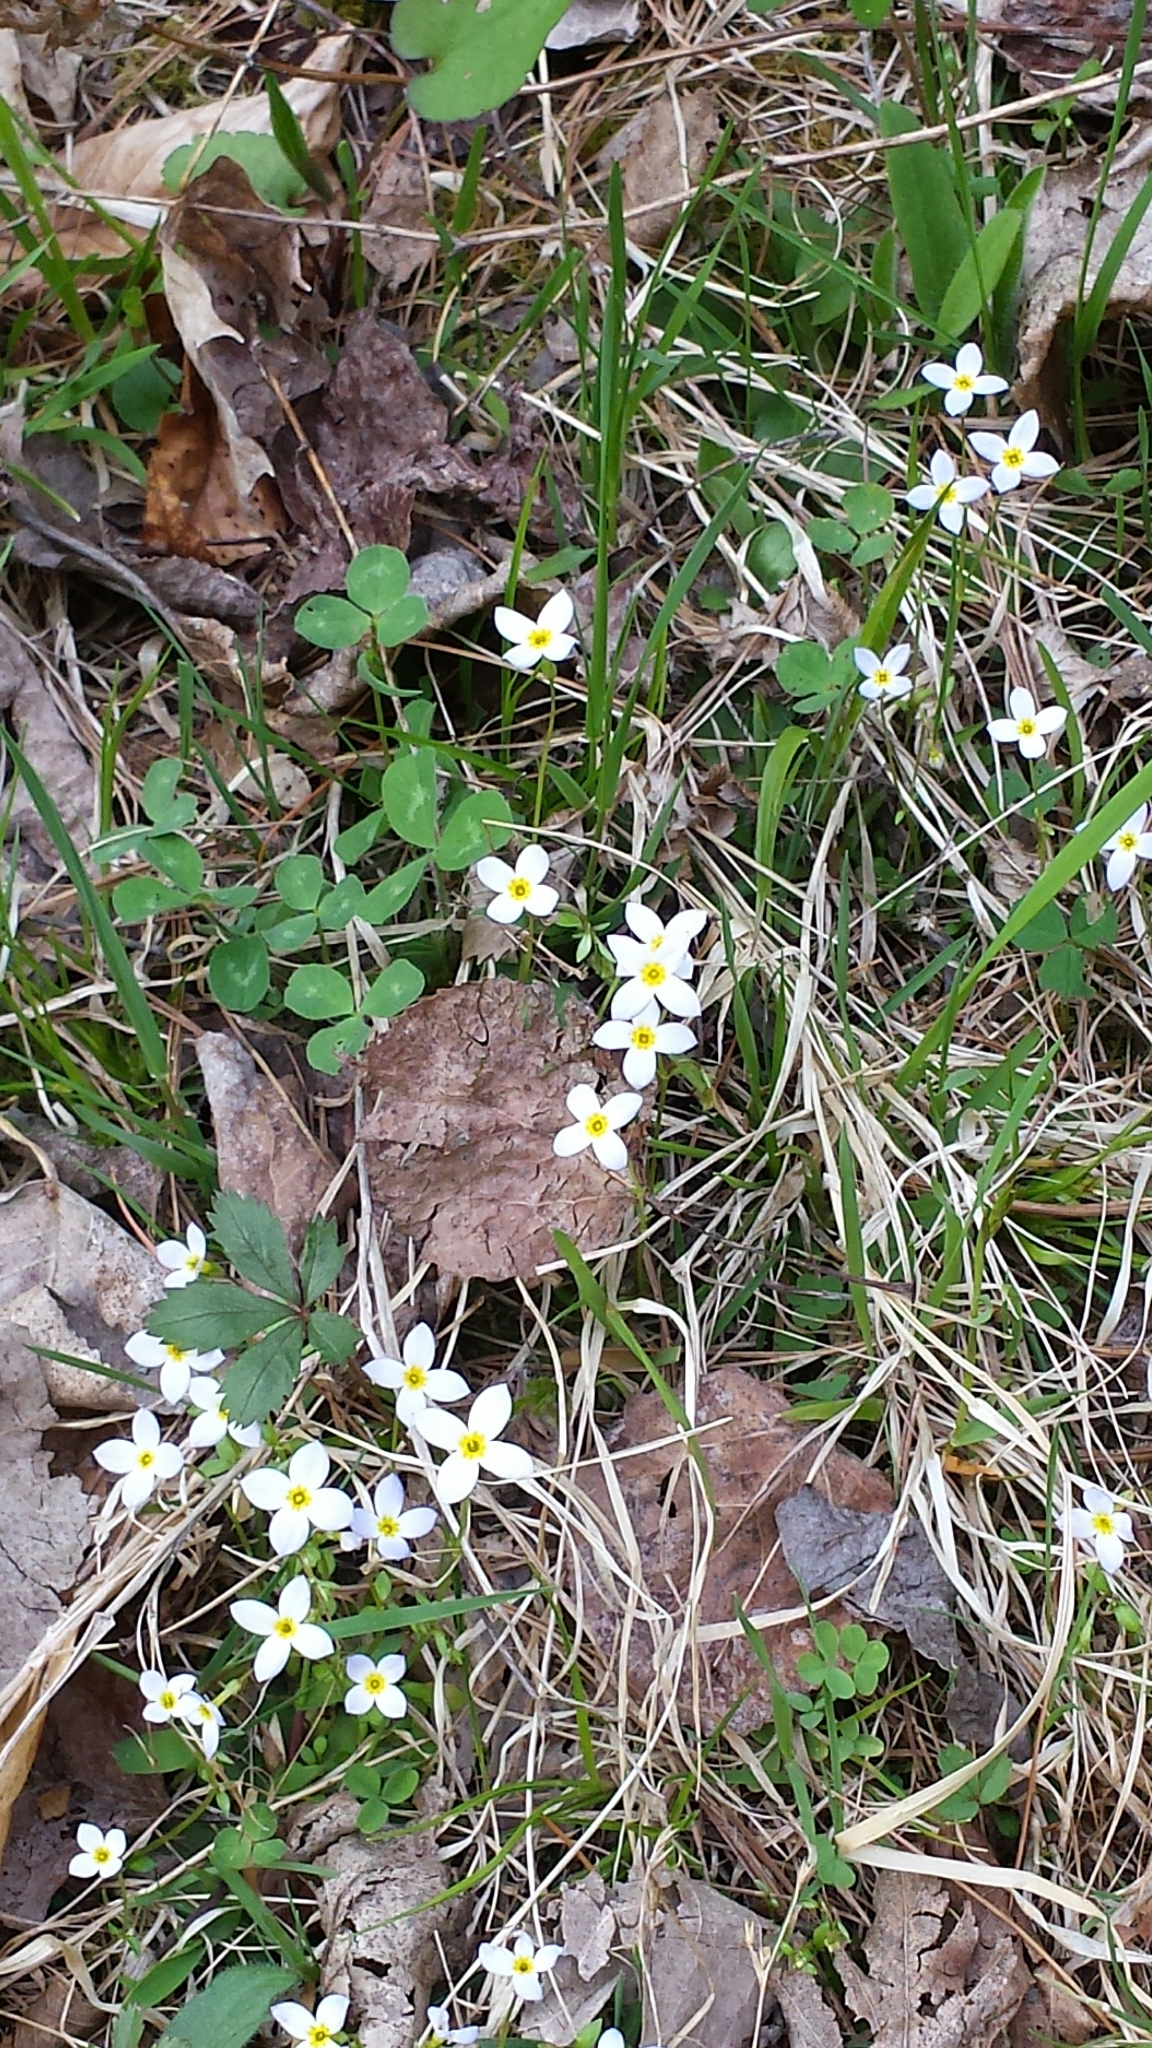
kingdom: Plantae
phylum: Tracheophyta
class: Magnoliopsida
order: Gentianales
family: Rubiaceae
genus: Houstonia
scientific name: Houstonia caerulea
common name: Bluets
